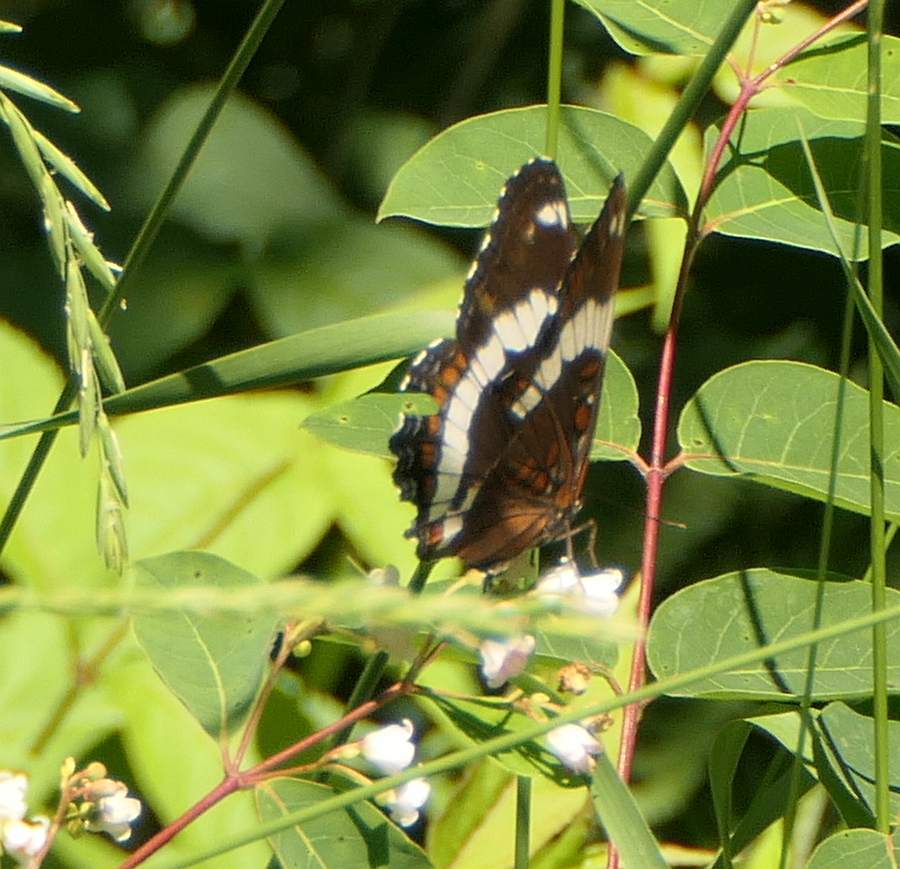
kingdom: Animalia
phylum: Arthropoda
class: Insecta
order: Lepidoptera
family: Nymphalidae
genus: Limenitis
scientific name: Limenitis arthemis
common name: Red-spotted admiral
